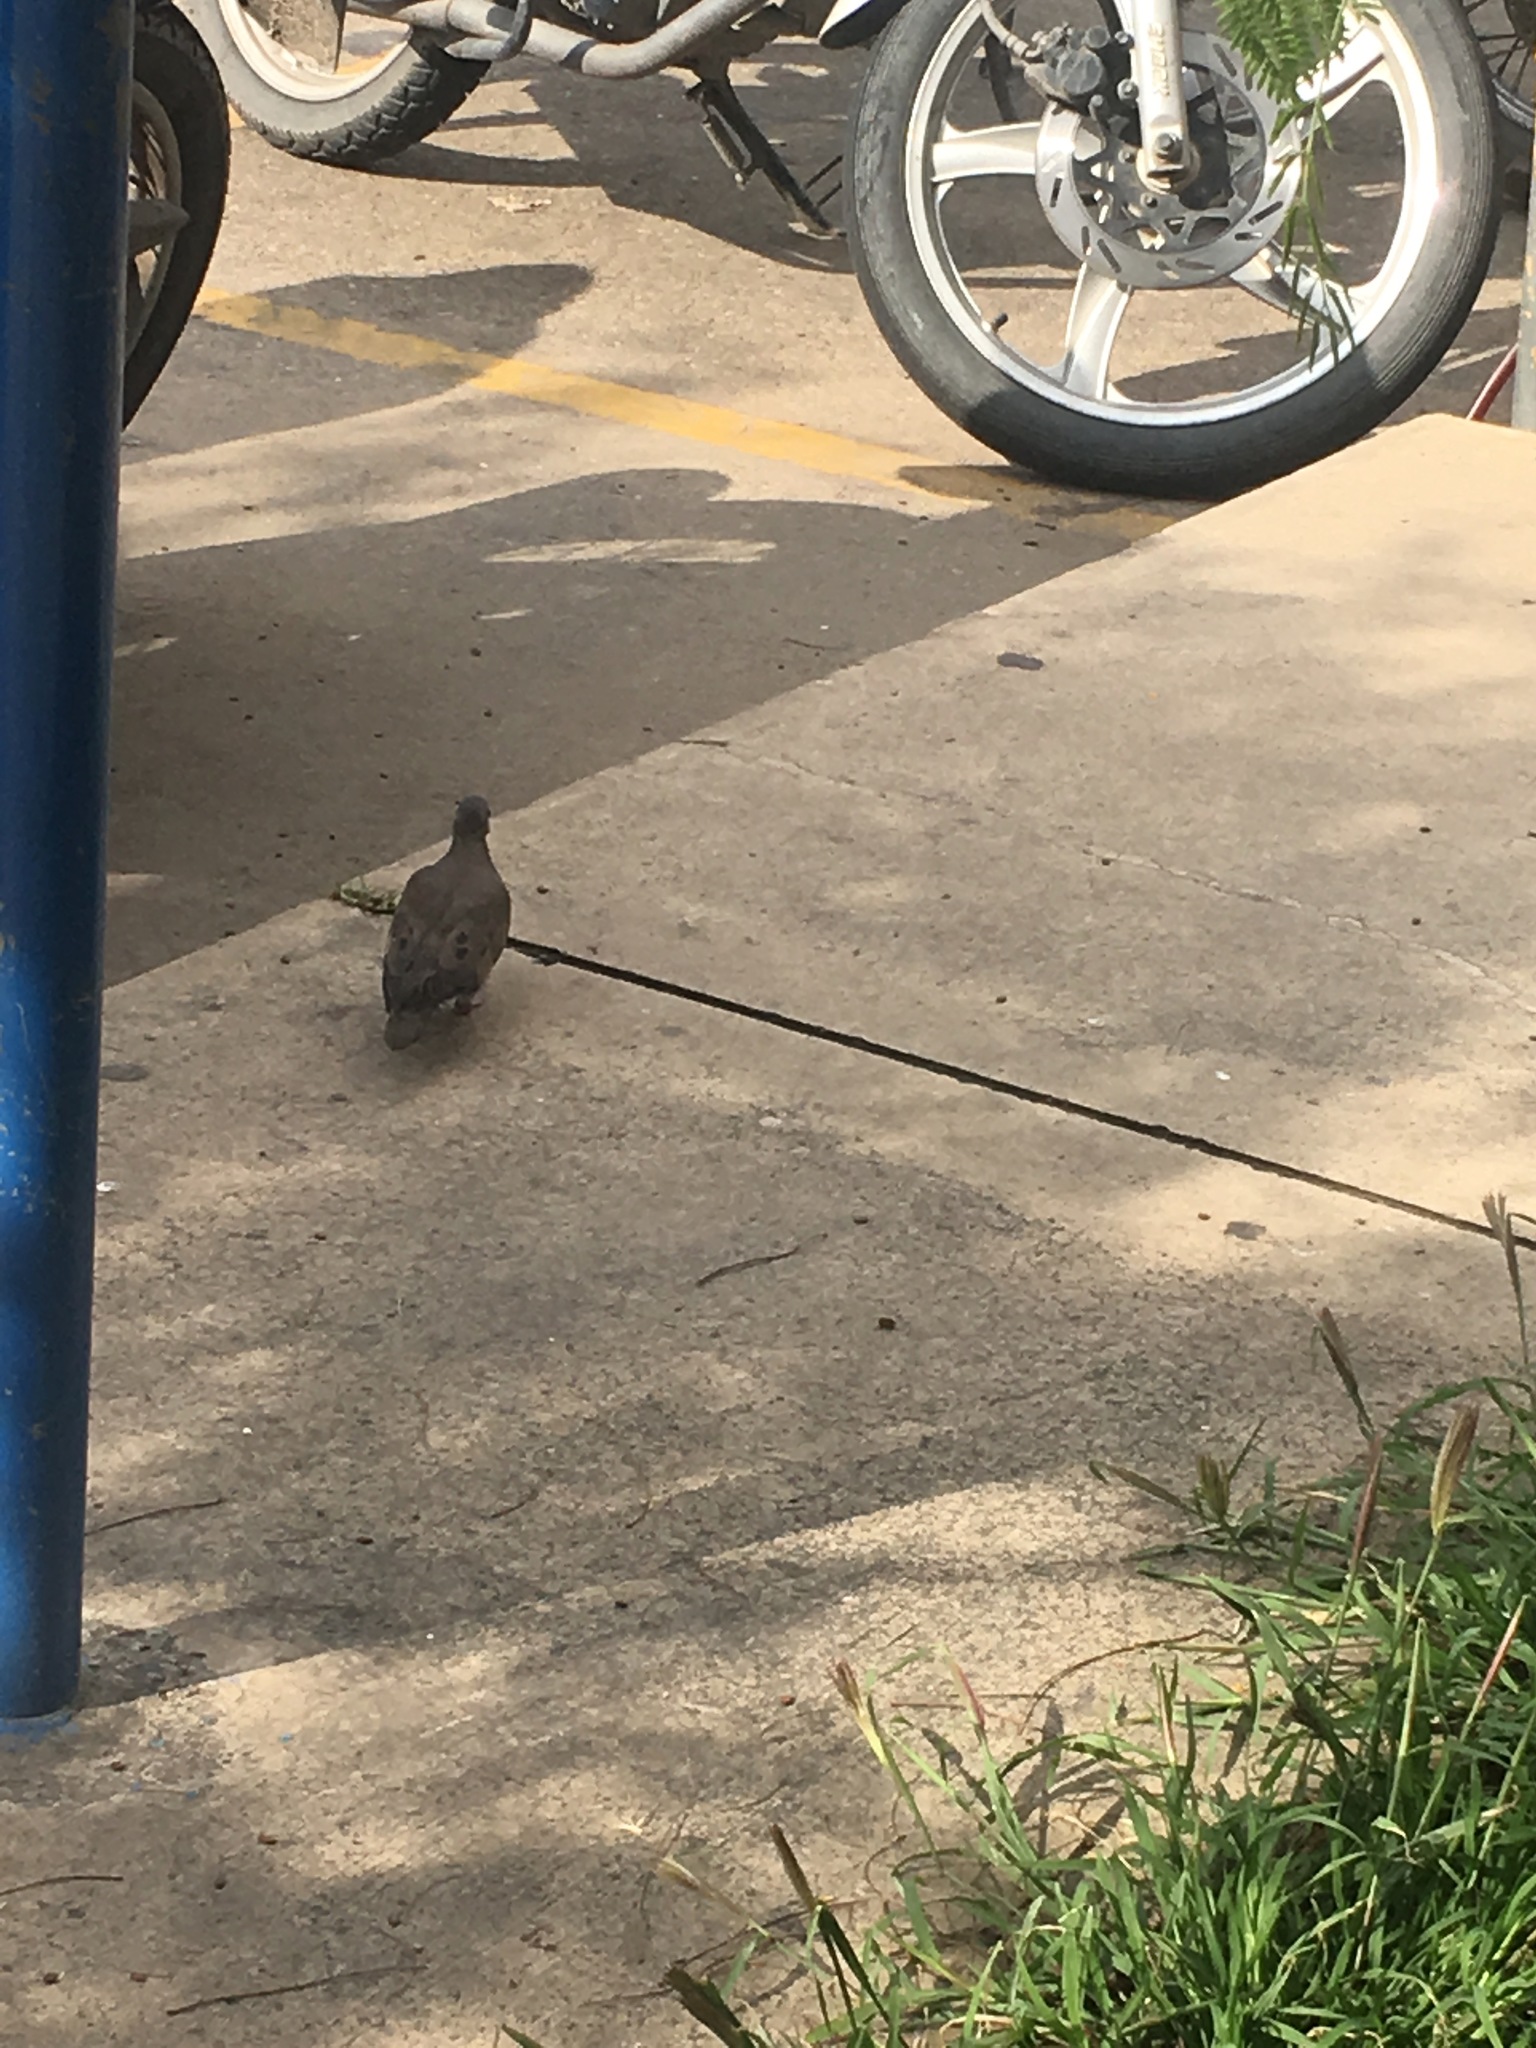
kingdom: Animalia
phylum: Chordata
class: Aves
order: Columbiformes
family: Columbidae
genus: Zenaida
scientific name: Zenaida auriculata
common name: Eared dove
